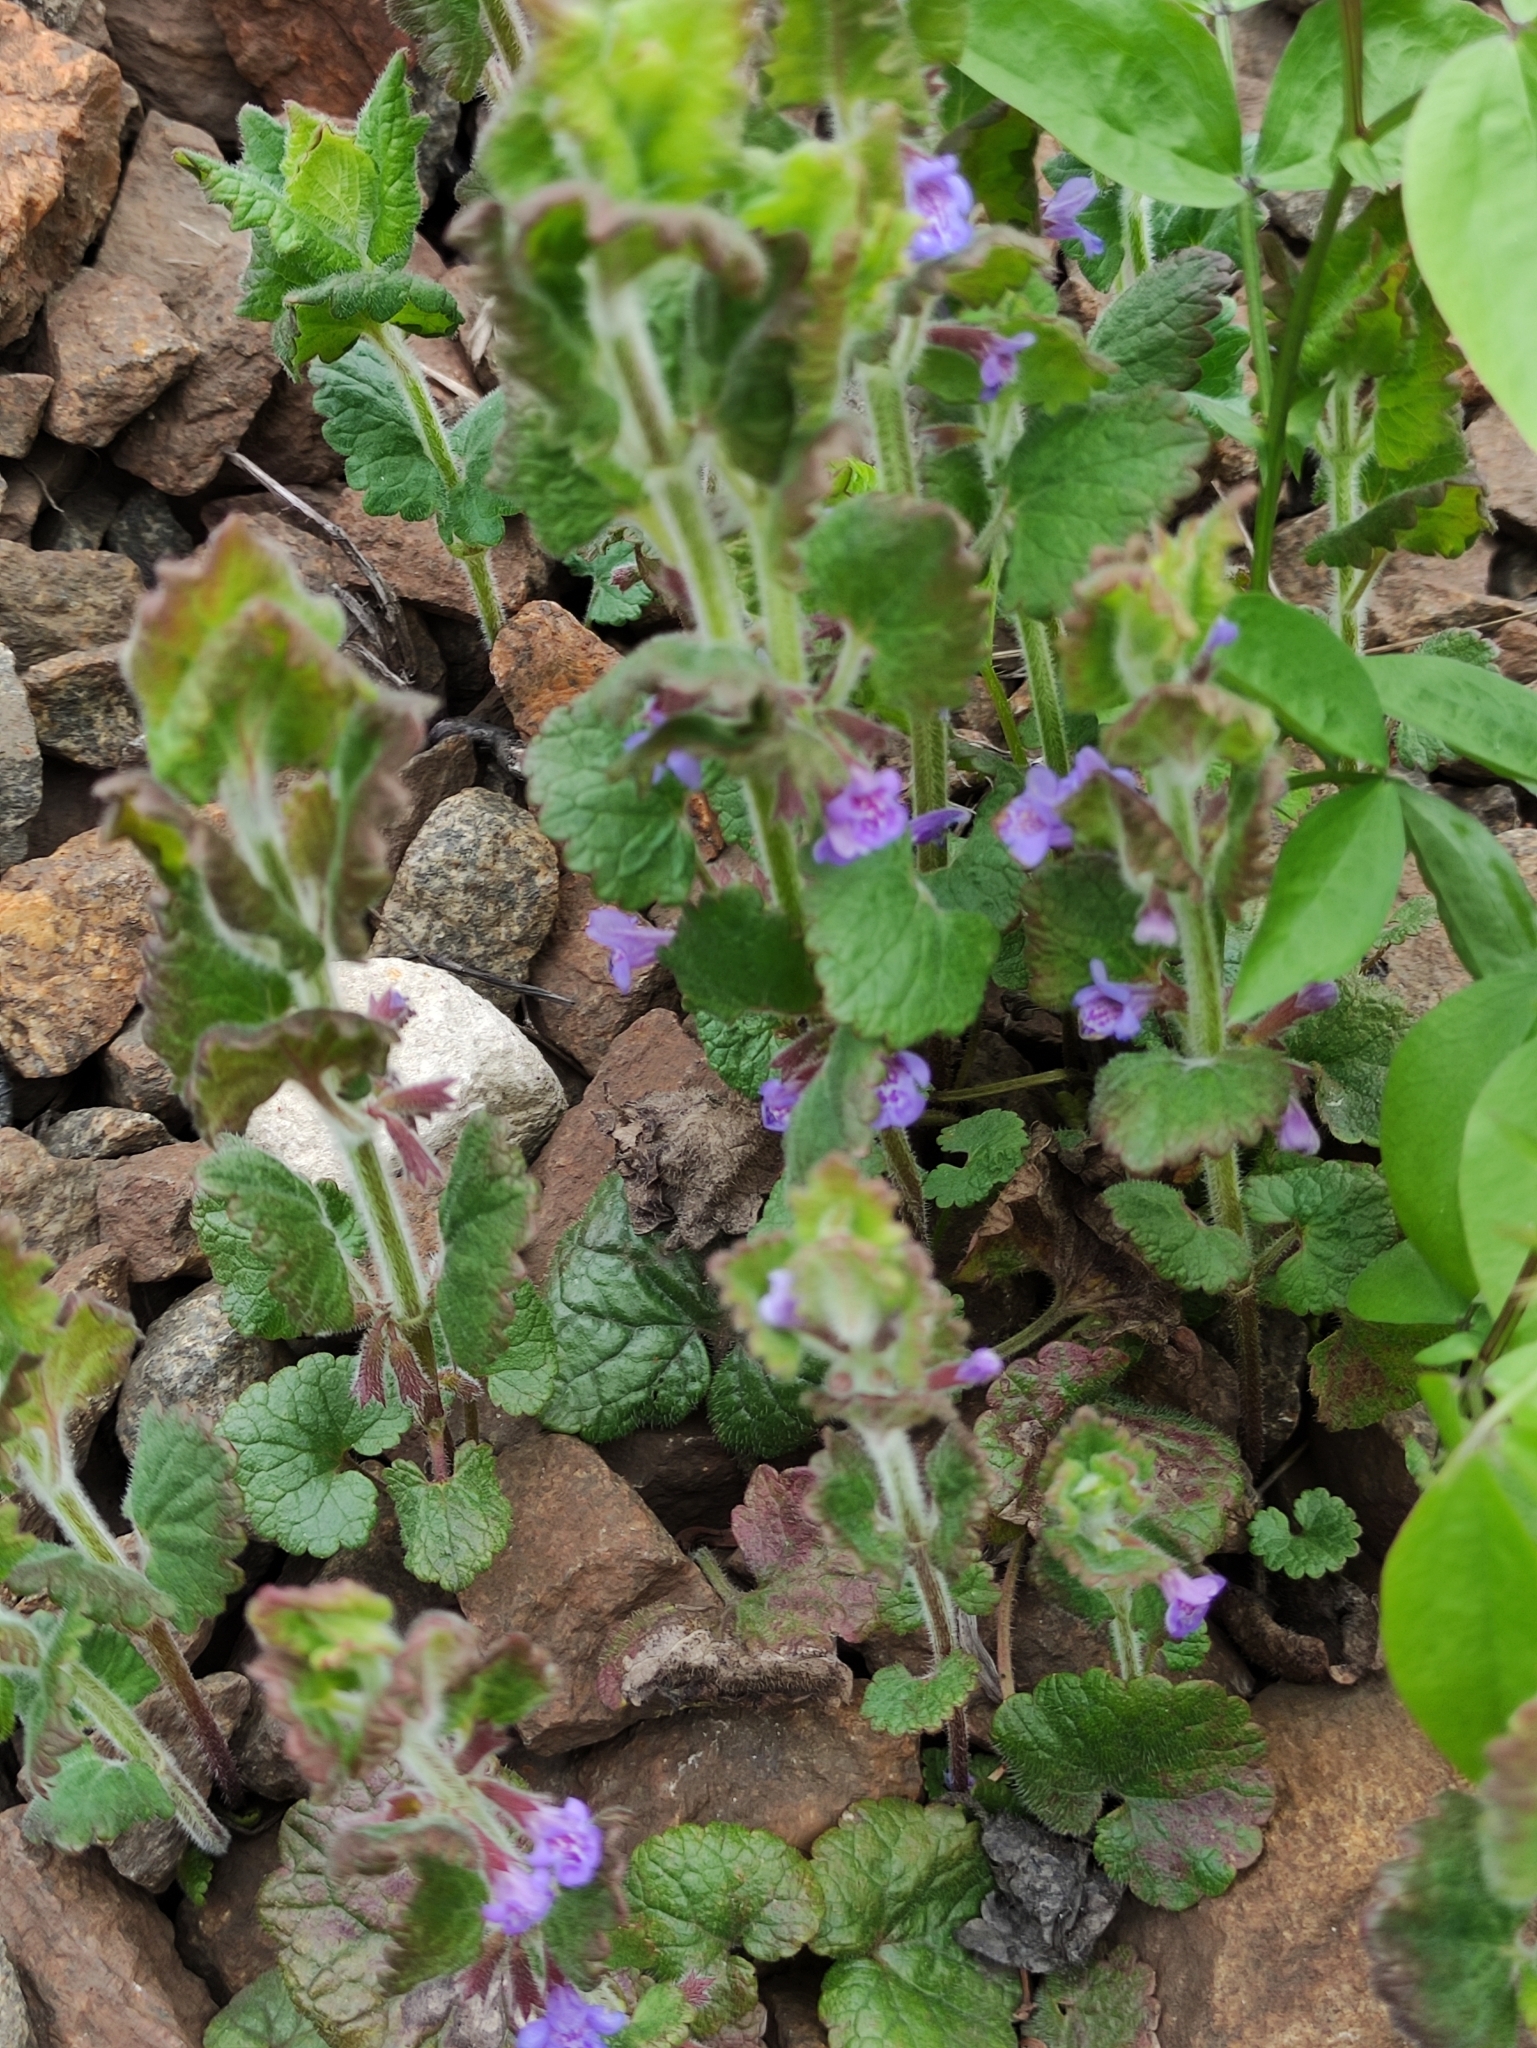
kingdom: Plantae
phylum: Tracheophyta
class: Magnoliopsida
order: Lamiales
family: Lamiaceae
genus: Glechoma
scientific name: Glechoma hederacea
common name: Ground ivy
